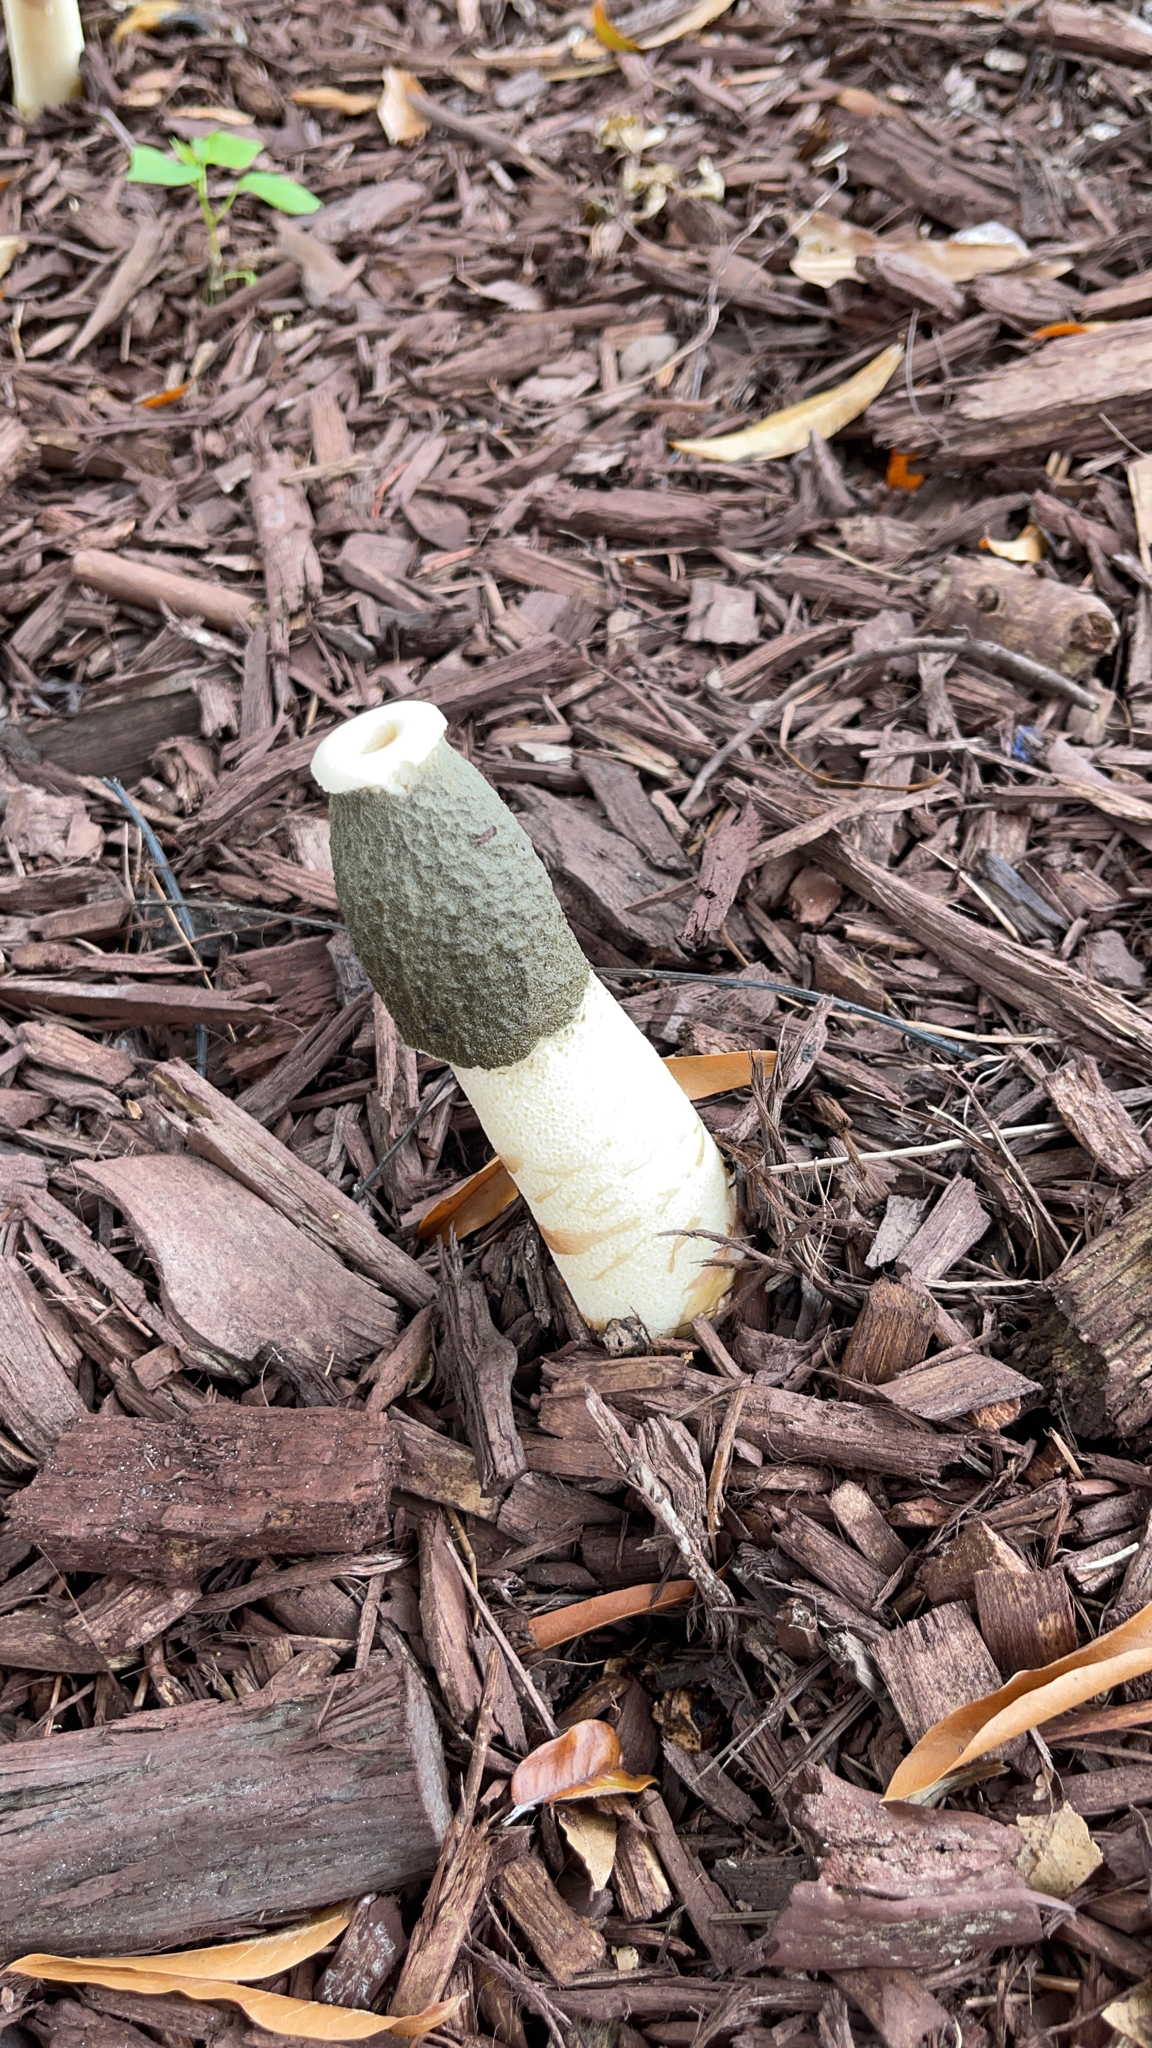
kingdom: Fungi
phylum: Basidiomycota
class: Agaricomycetes
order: Phallales
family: Phallaceae
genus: Phallus
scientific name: Phallus ravenelii
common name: Ravenel's stinkhorn
